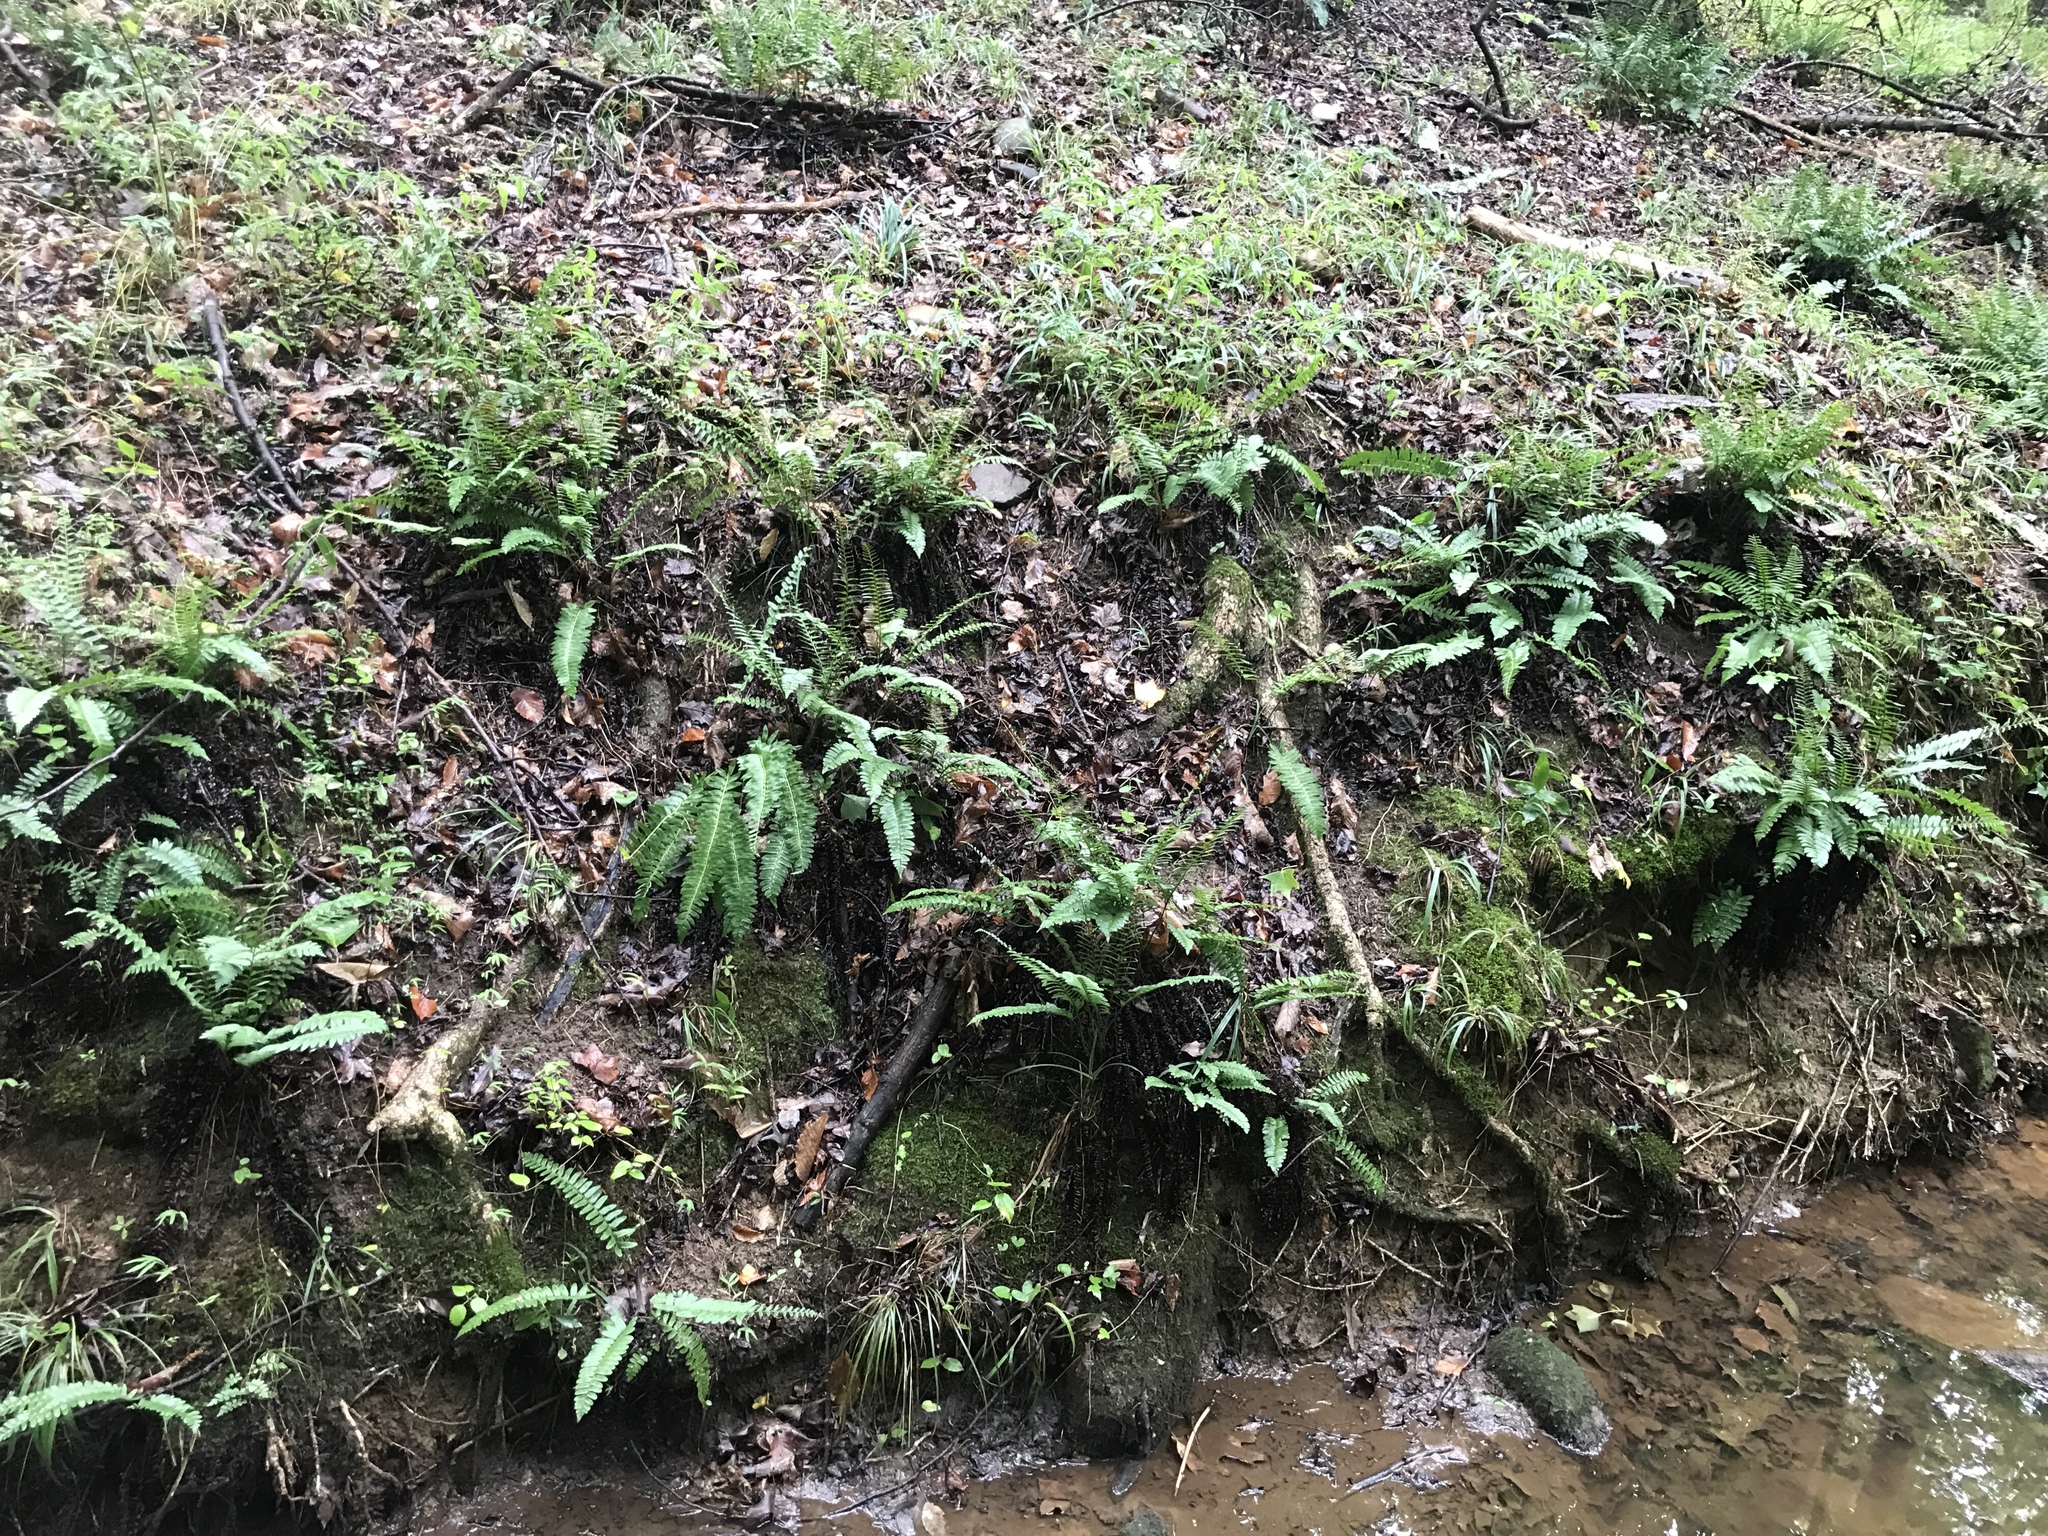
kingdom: Plantae
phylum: Tracheophyta
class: Polypodiopsida
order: Polypodiales
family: Dryopteridaceae
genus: Polystichum
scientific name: Polystichum acrostichoides
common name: Christmas fern
